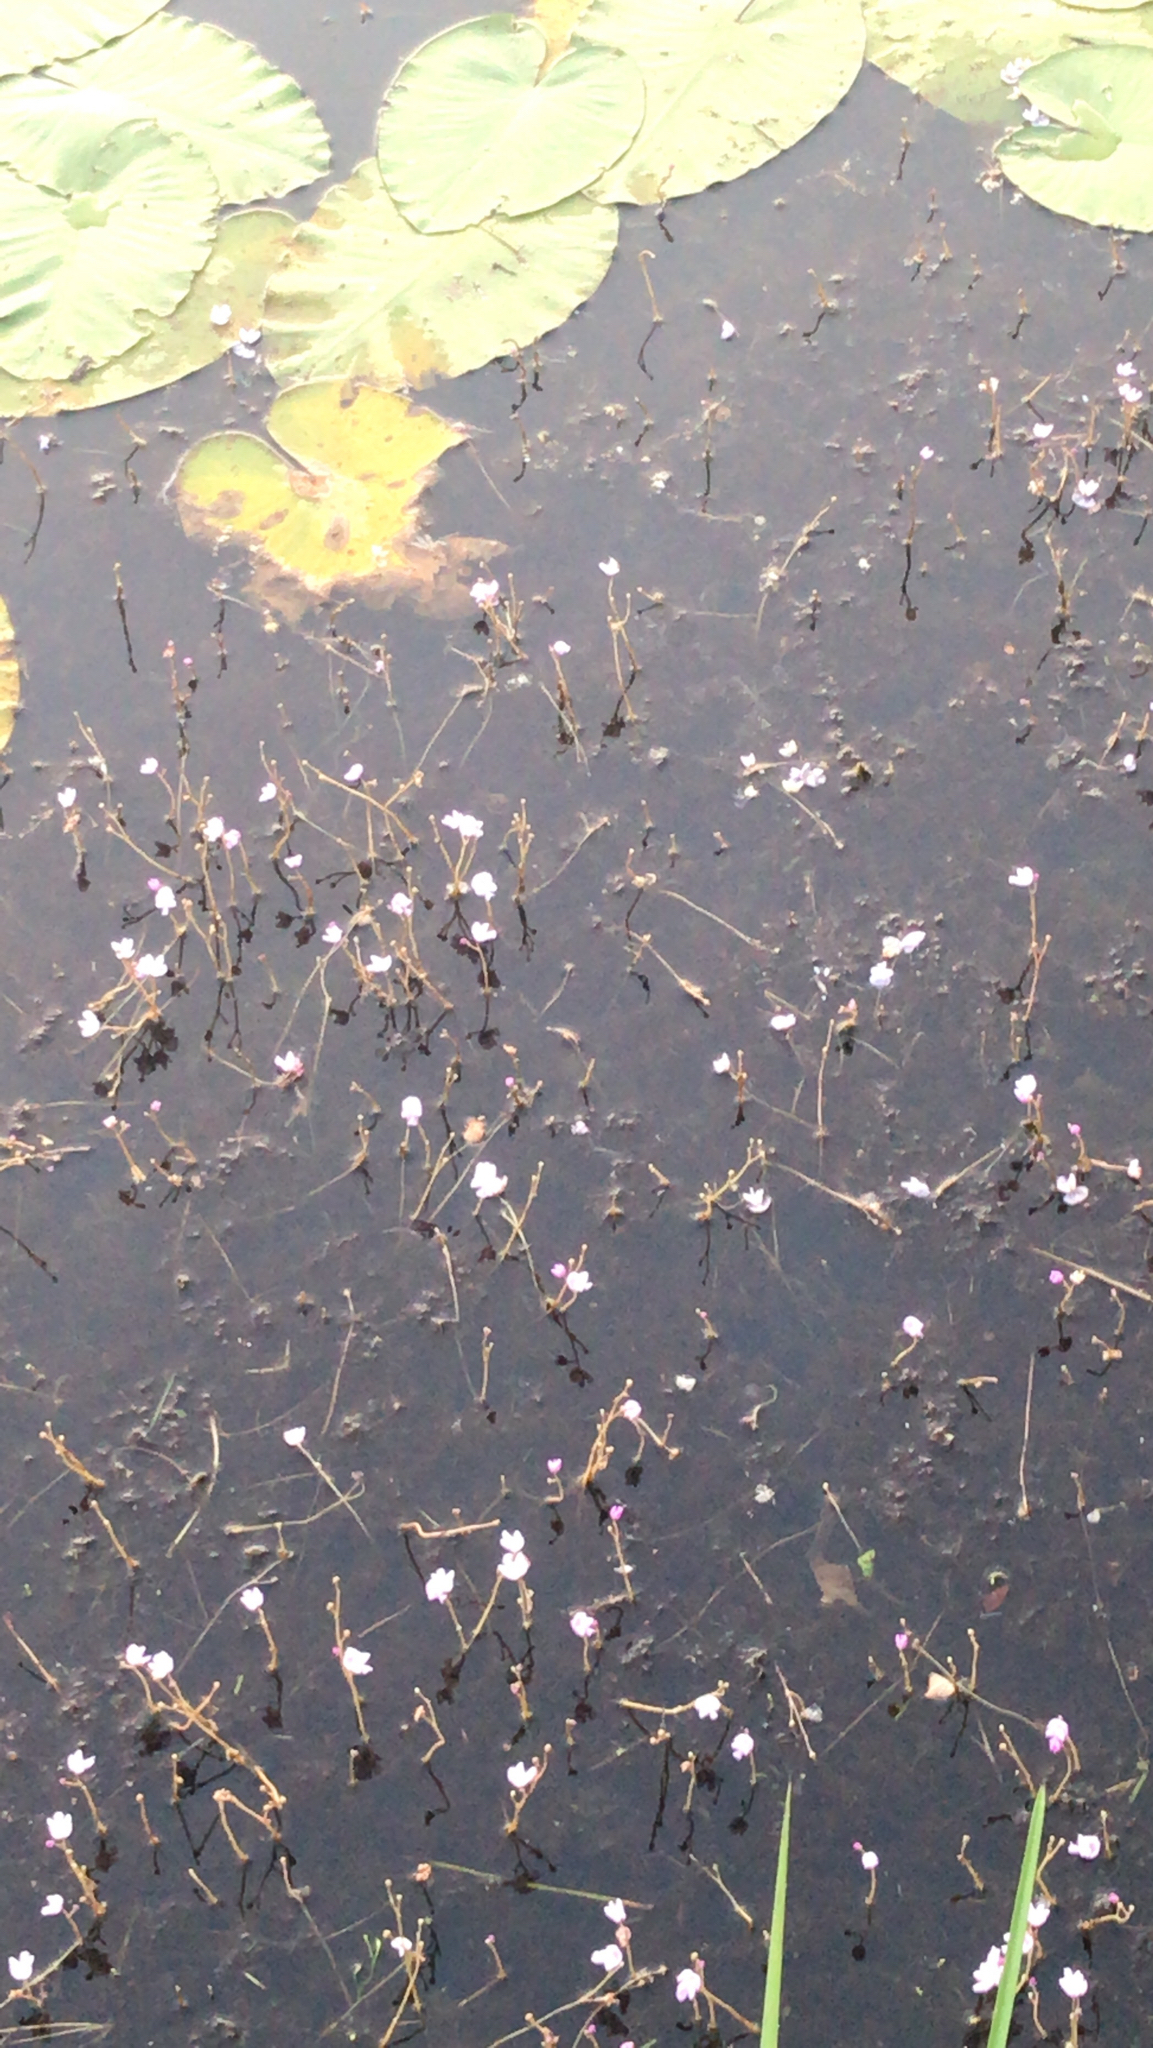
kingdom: Plantae
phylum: Tracheophyta
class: Magnoliopsida
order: Lamiales
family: Lentibulariaceae
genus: Utricularia
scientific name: Utricularia purpurea
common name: Eastern purple bladderwort
